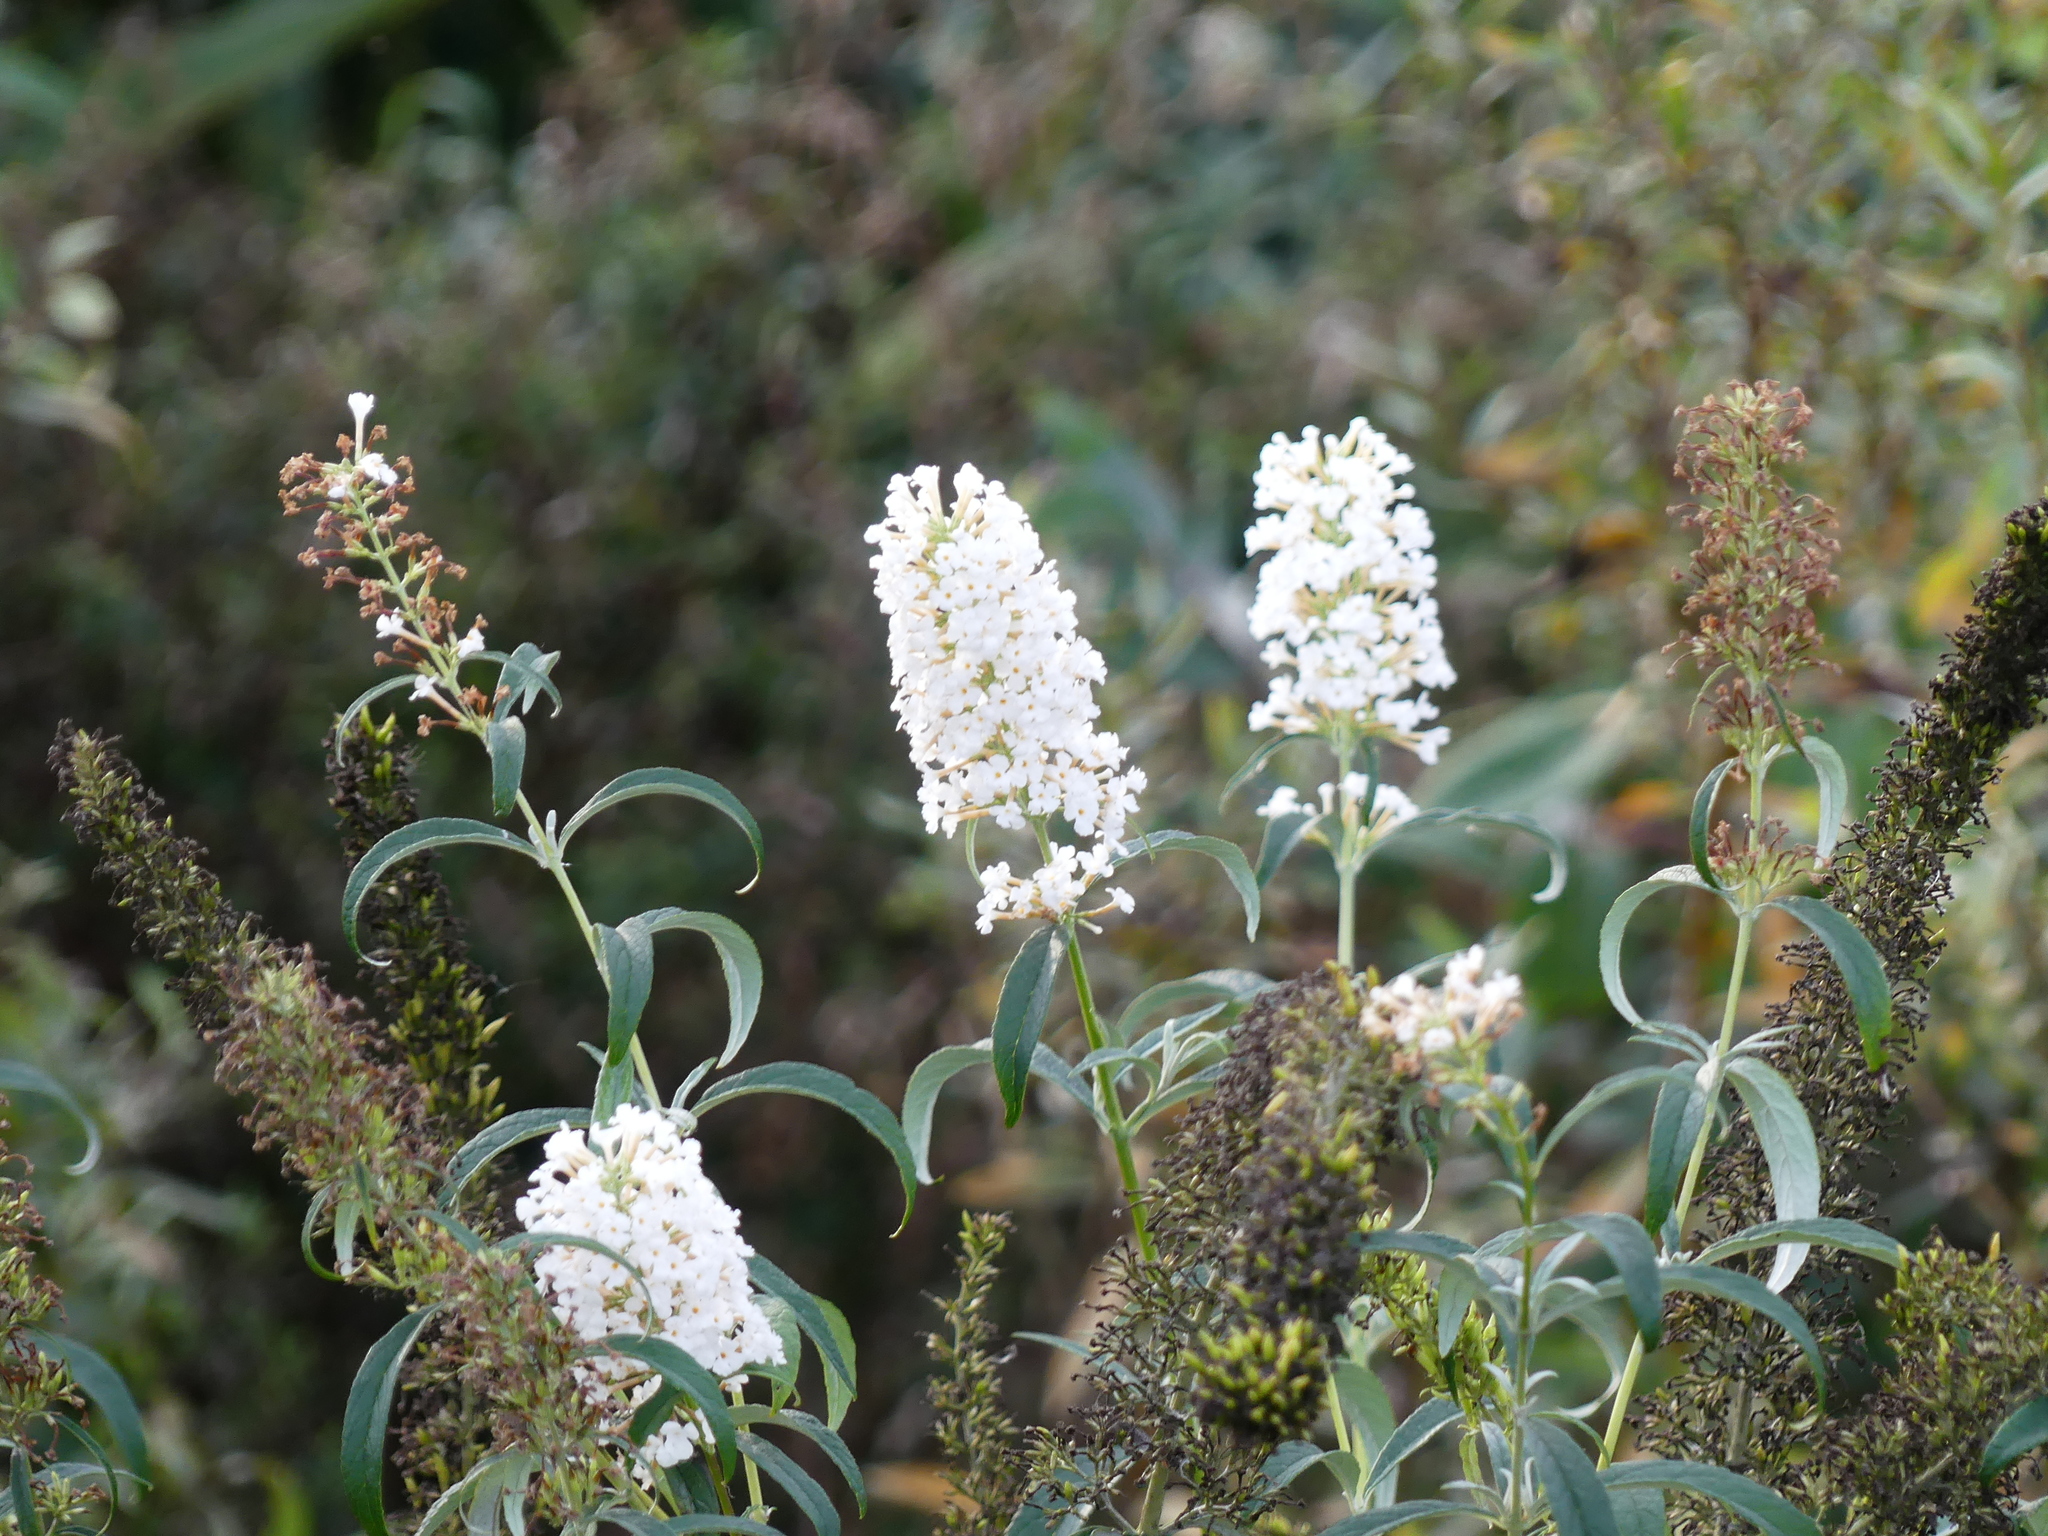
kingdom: Plantae
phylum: Tracheophyta
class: Magnoliopsida
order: Lamiales
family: Scrophulariaceae
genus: Buddleja
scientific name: Buddleja davidii
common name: Butterfly-bush
